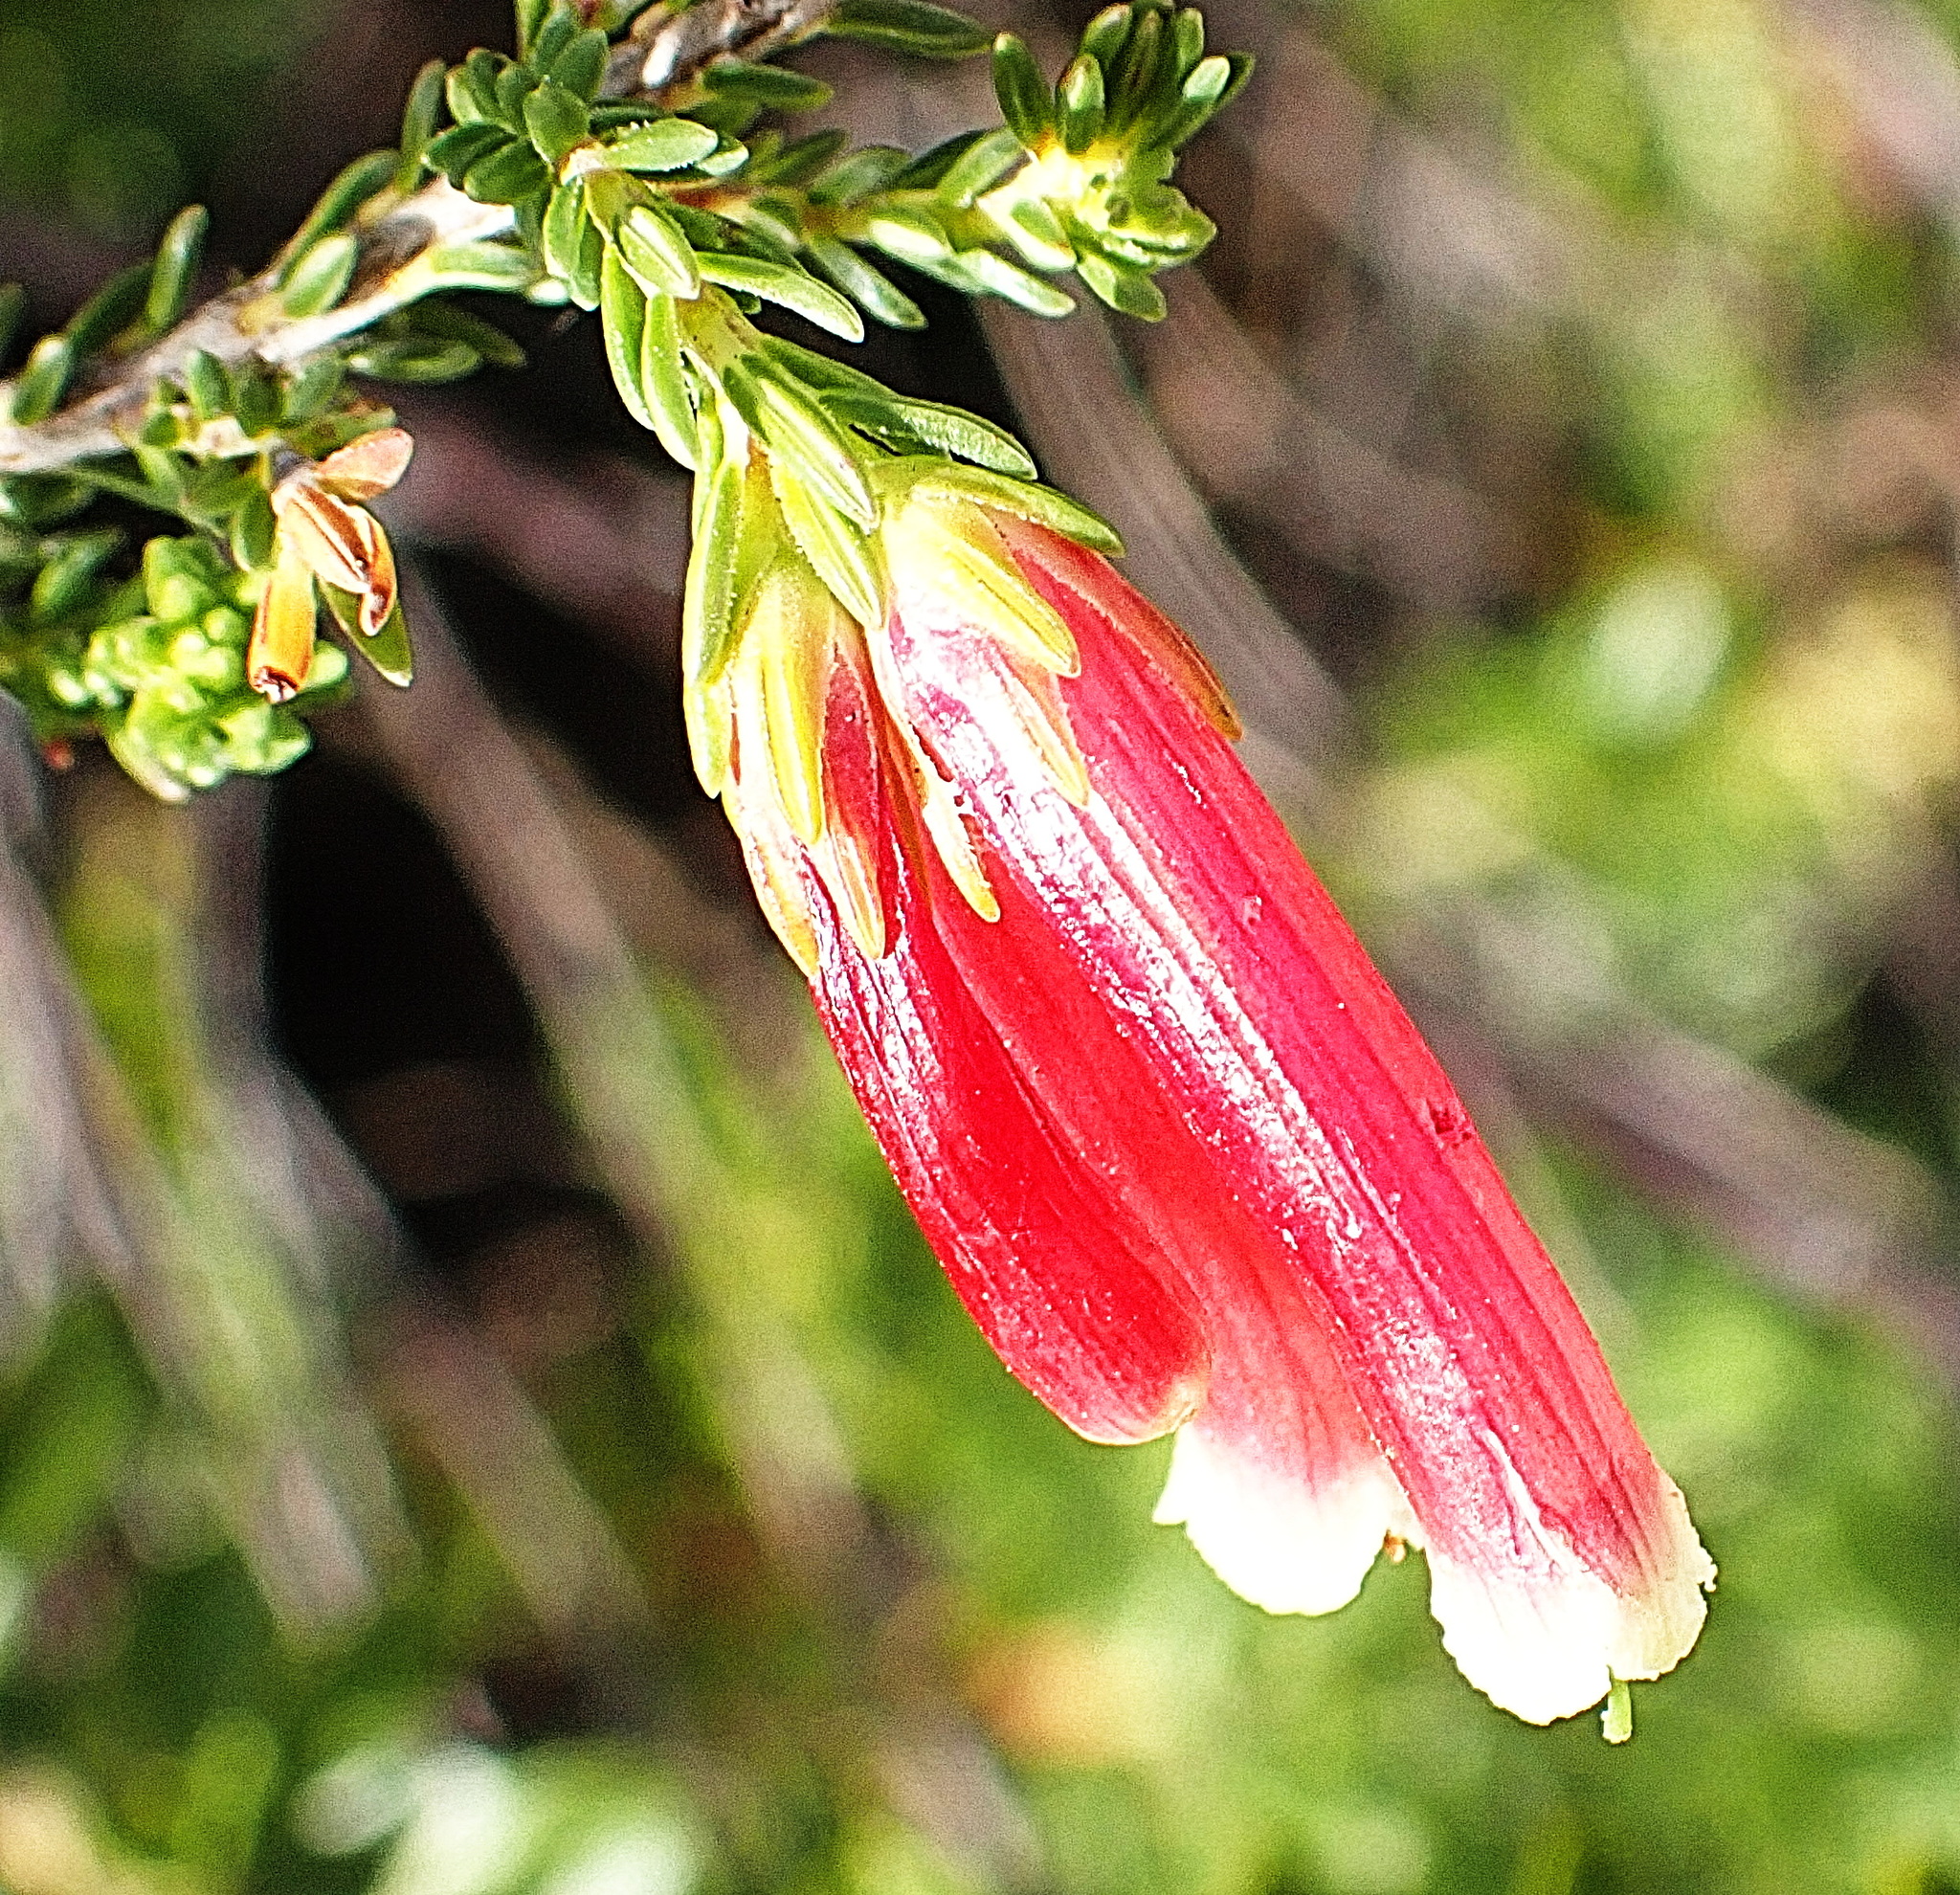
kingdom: Plantae
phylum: Tracheophyta
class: Magnoliopsida
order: Ericales
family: Ericaceae
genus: Erica
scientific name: Erica versicolor
